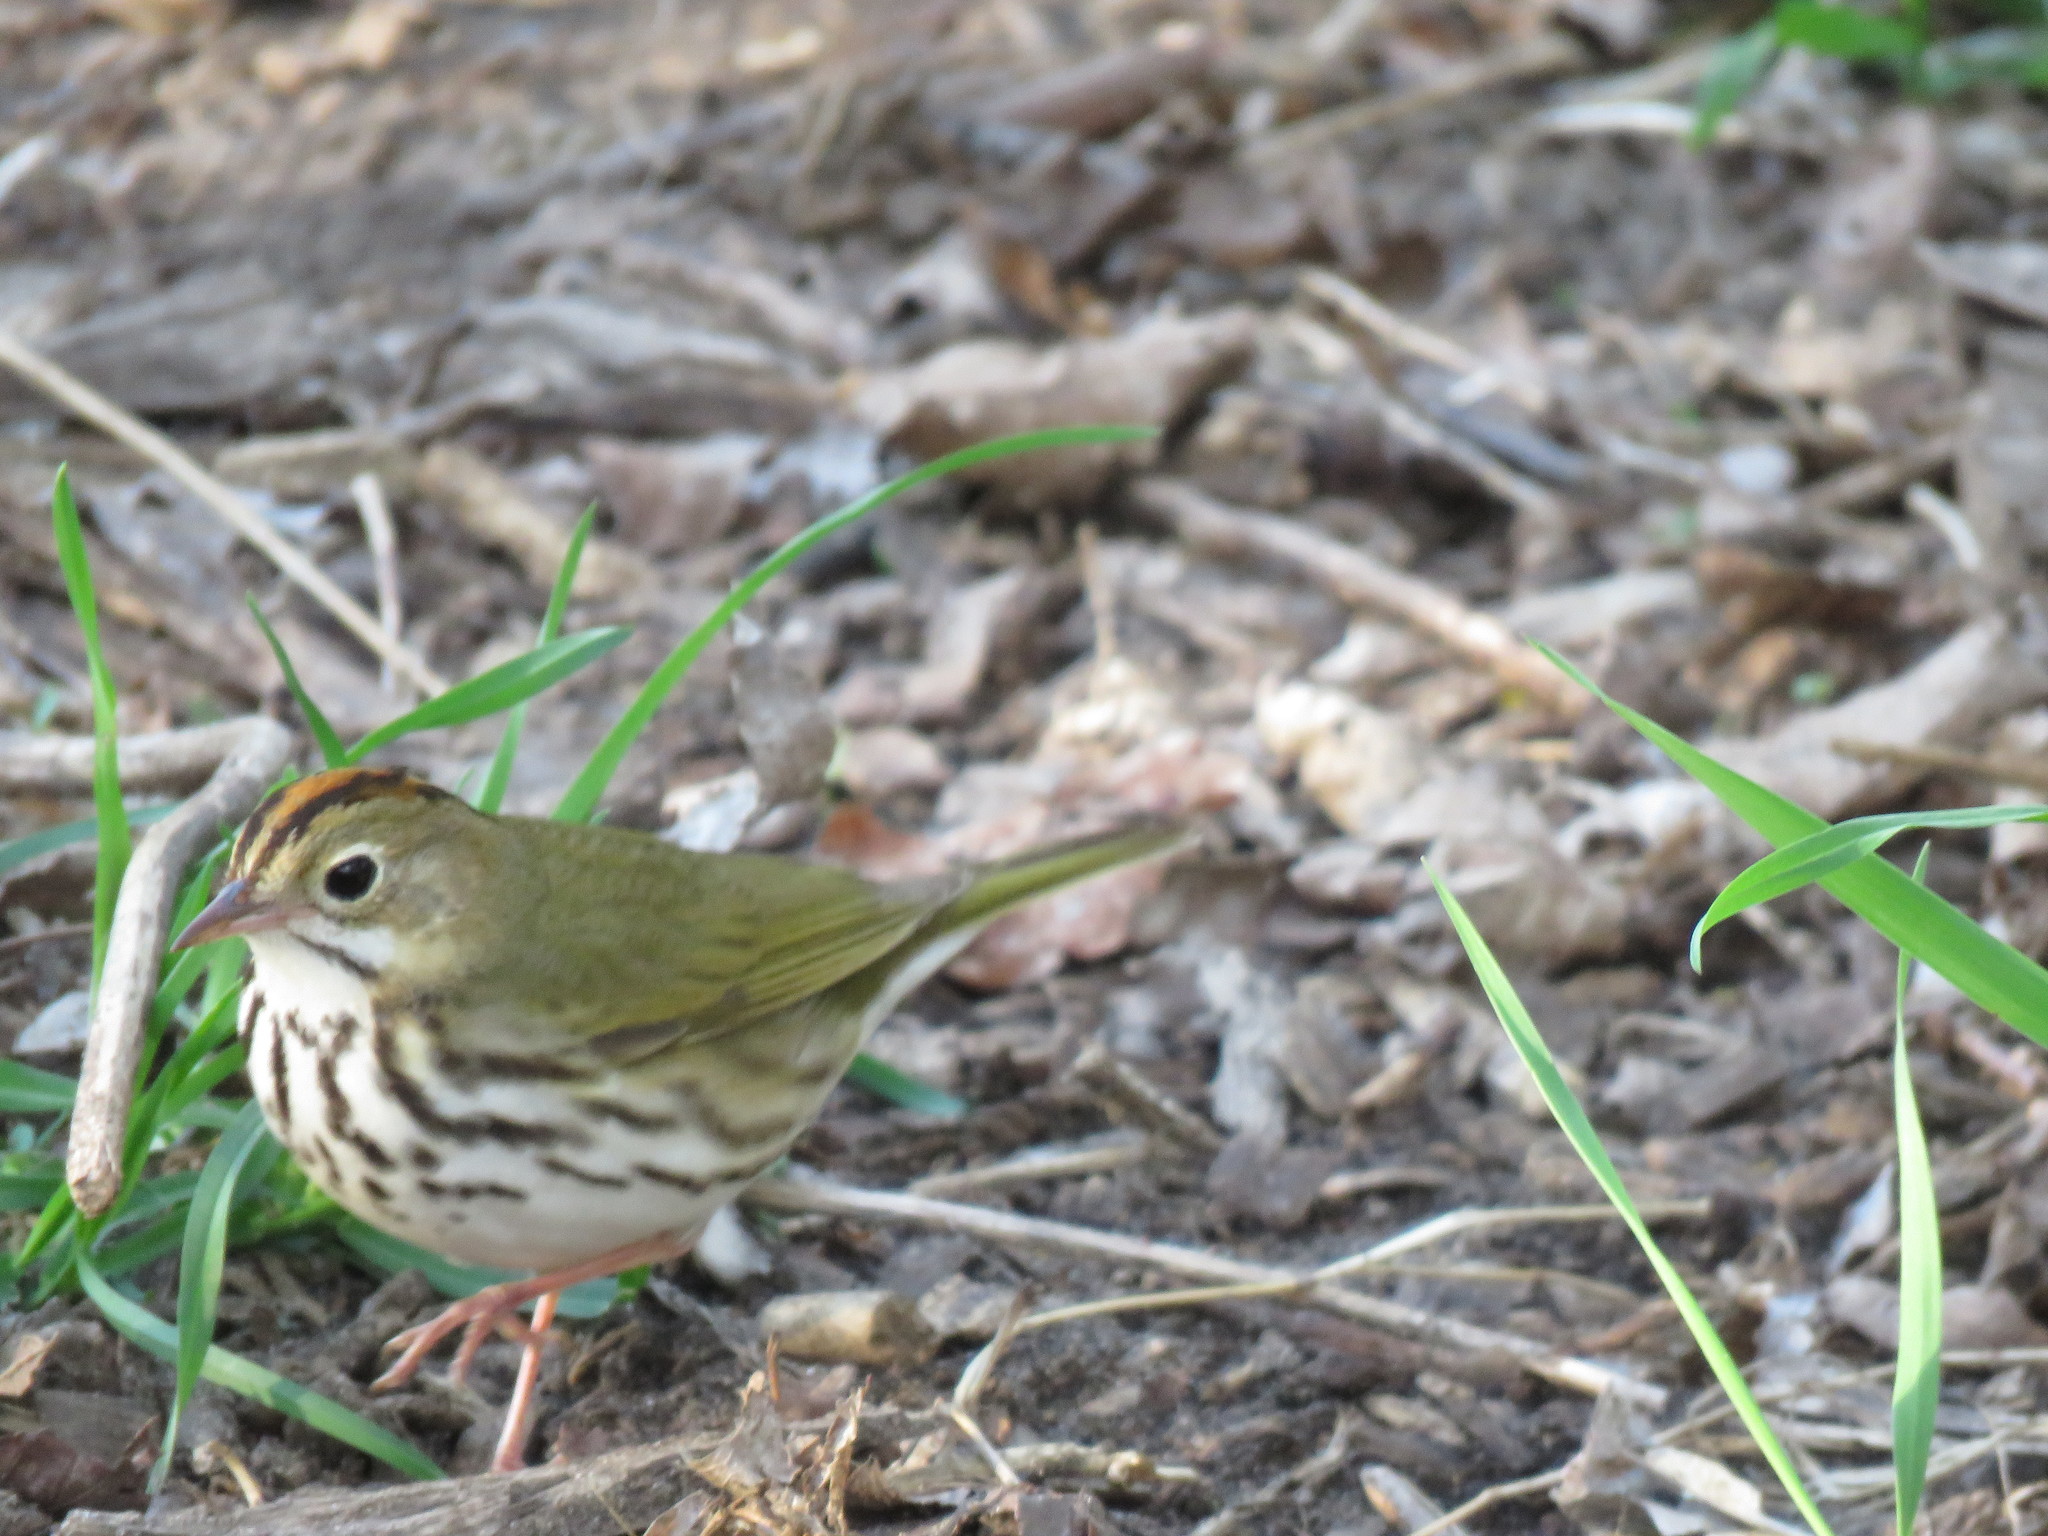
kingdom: Animalia
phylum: Chordata
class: Aves
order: Passeriformes
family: Parulidae
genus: Seiurus
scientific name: Seiurus aurocapilla
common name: Ovenbird
